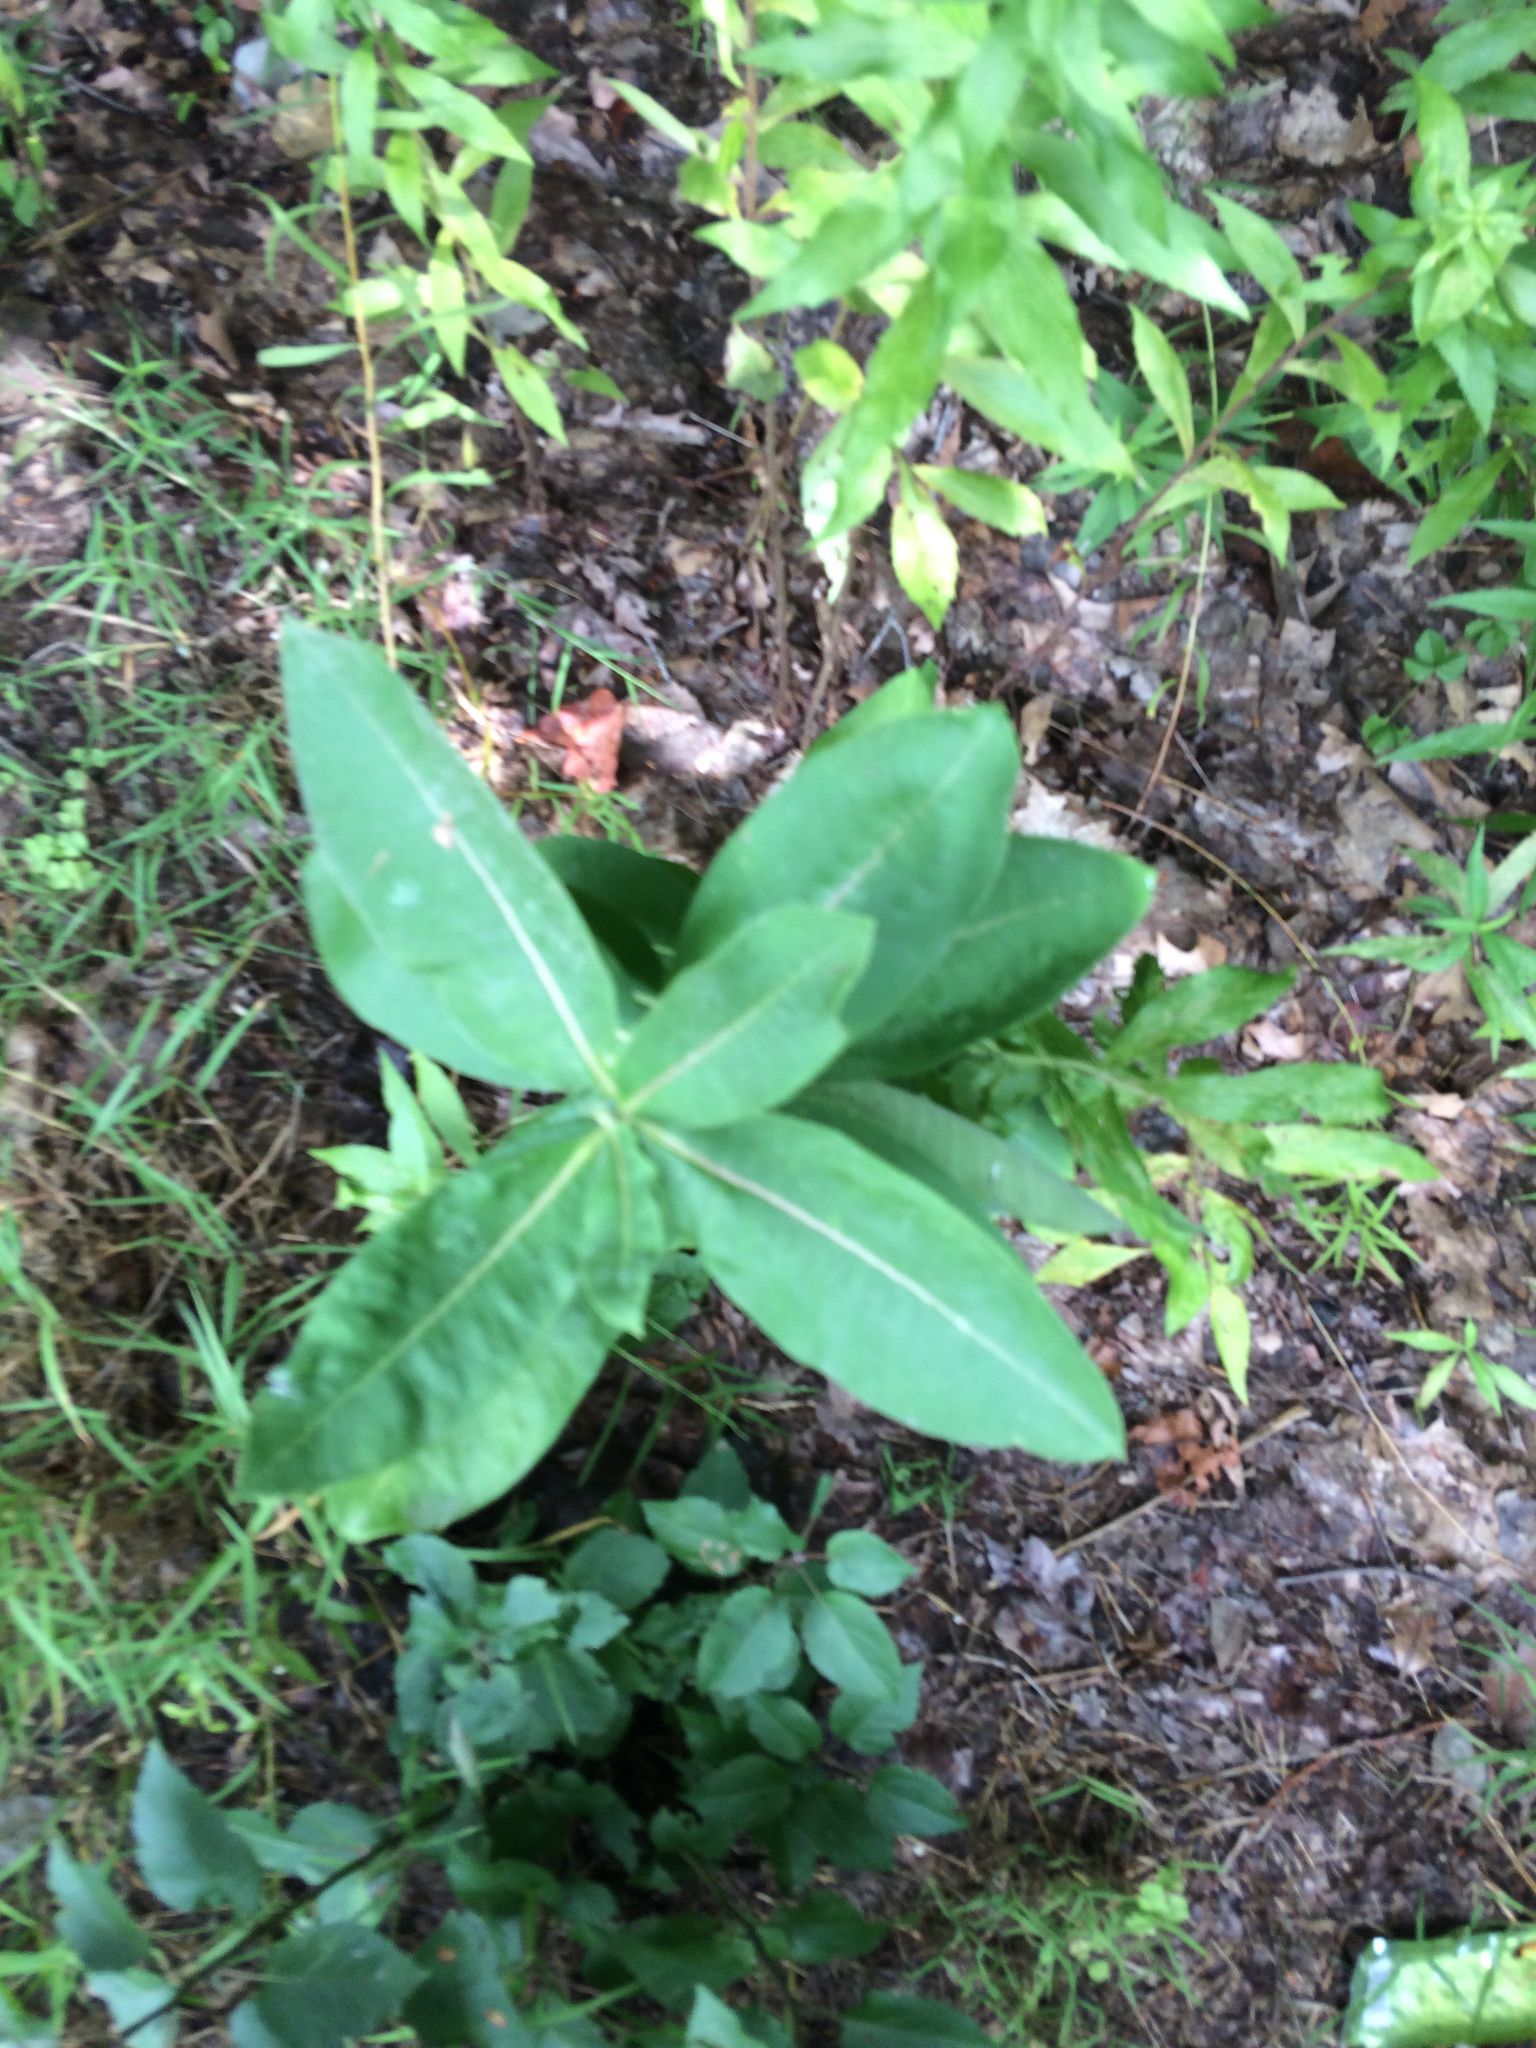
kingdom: Plantae
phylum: Tracheophyta
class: Magnoliopsida
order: Gentianales
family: Apocynaceae
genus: Asclepias
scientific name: Asclepias syriaca
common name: Common milkweed
